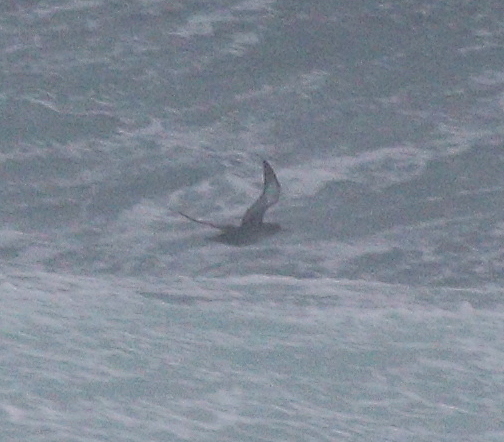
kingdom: Animalia
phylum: Chordata
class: Aves
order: Procellariiformes
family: Procellariidae
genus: Puffinus
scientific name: Puffinus mauretanicus
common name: Balearic shearwater
